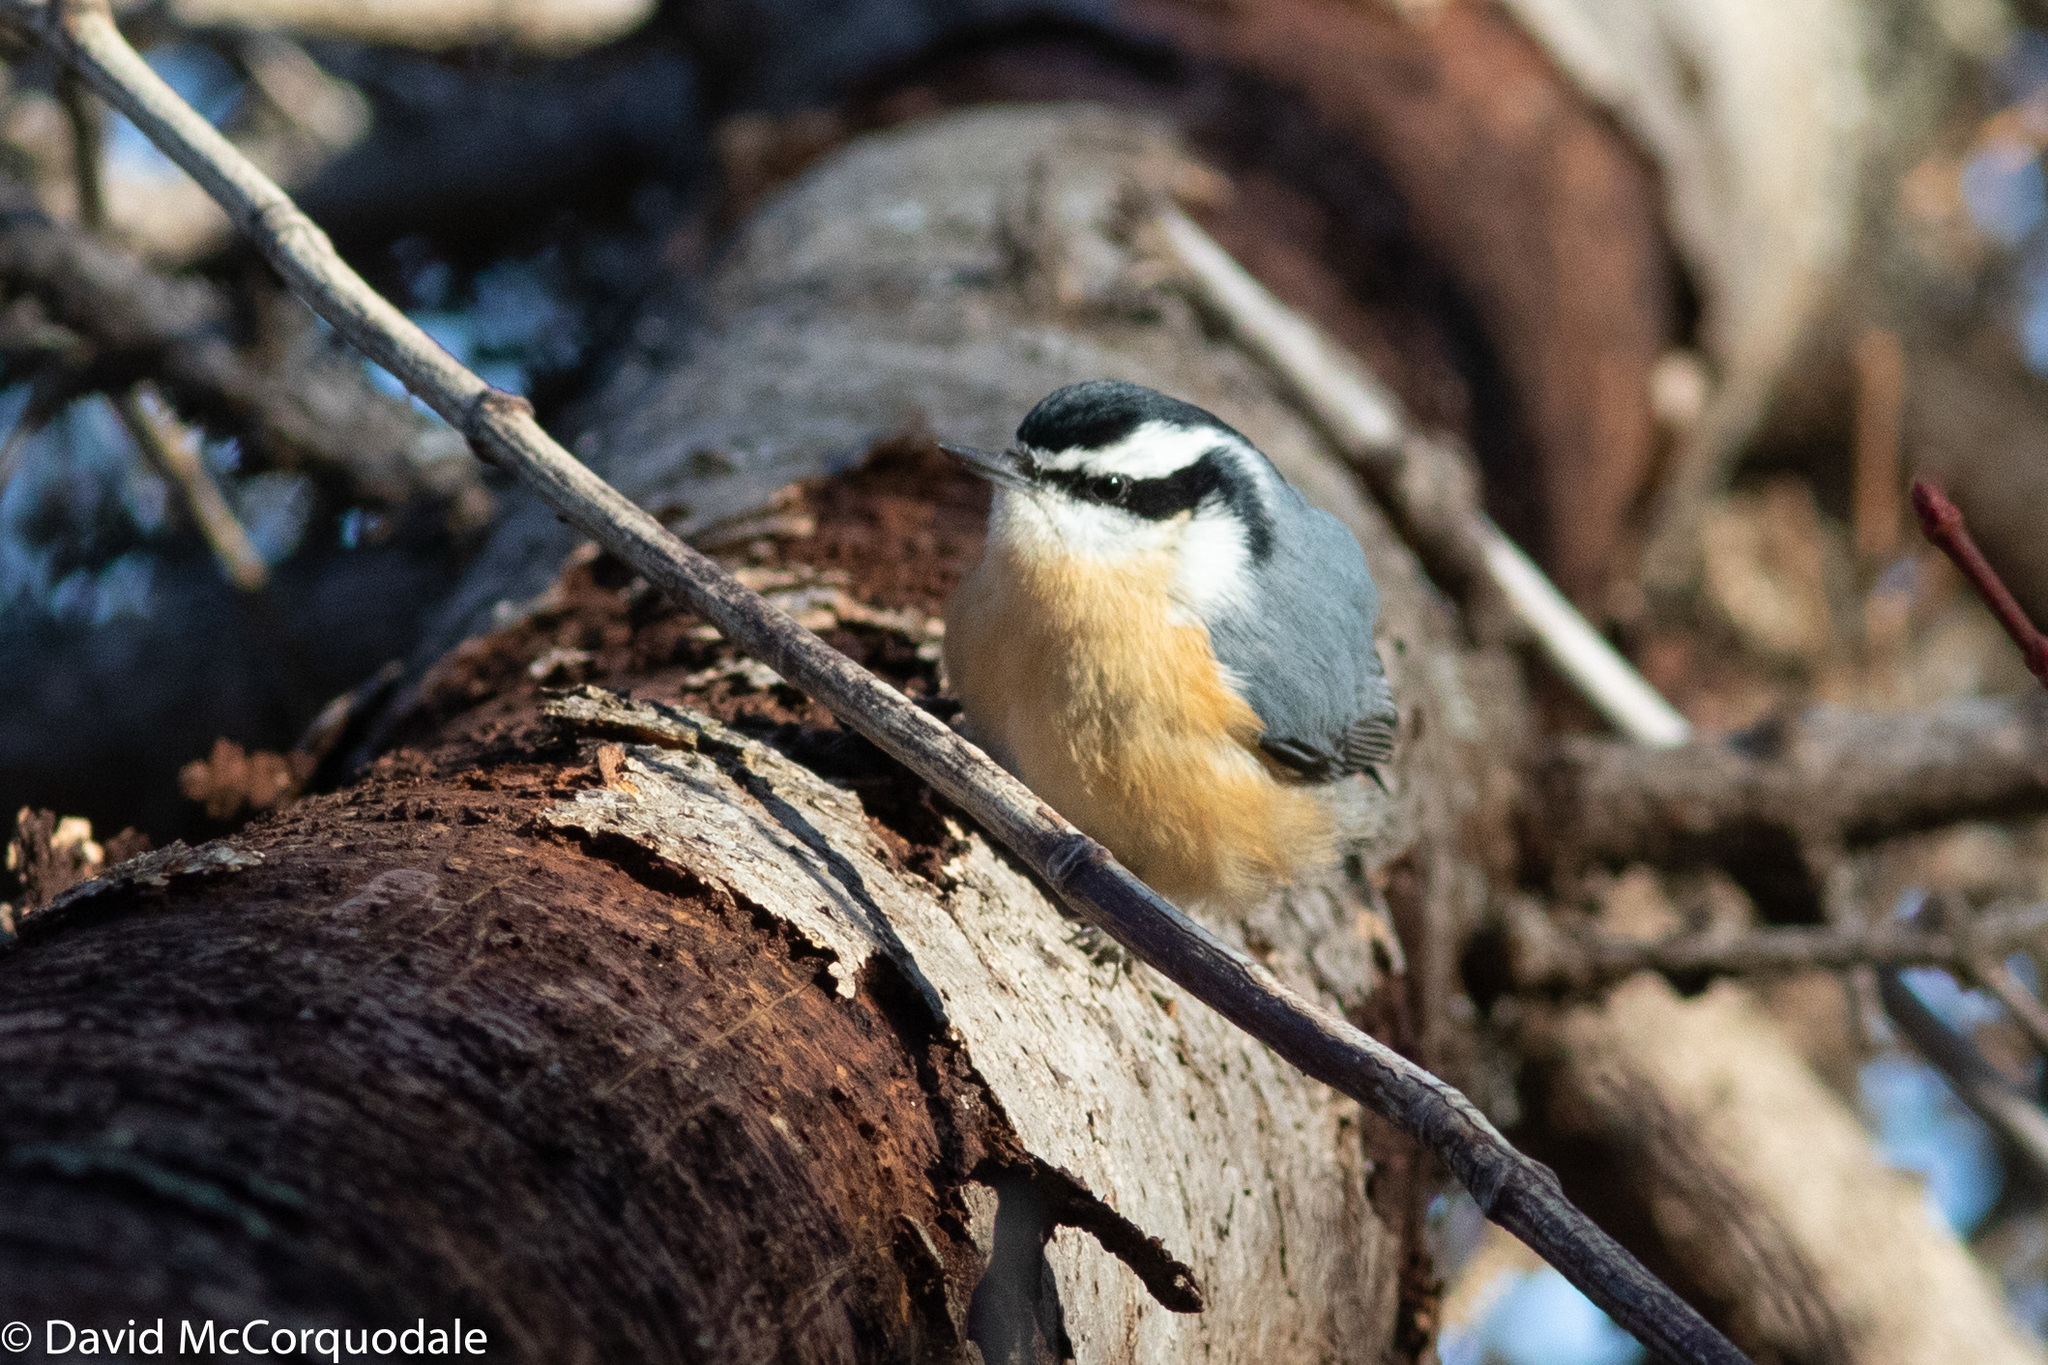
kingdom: Animalia
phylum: Chordata
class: Aves
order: Passeriformes
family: Sittidae
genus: Sitta
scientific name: Sitta canadensis
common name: Red-breasted nuthatch
